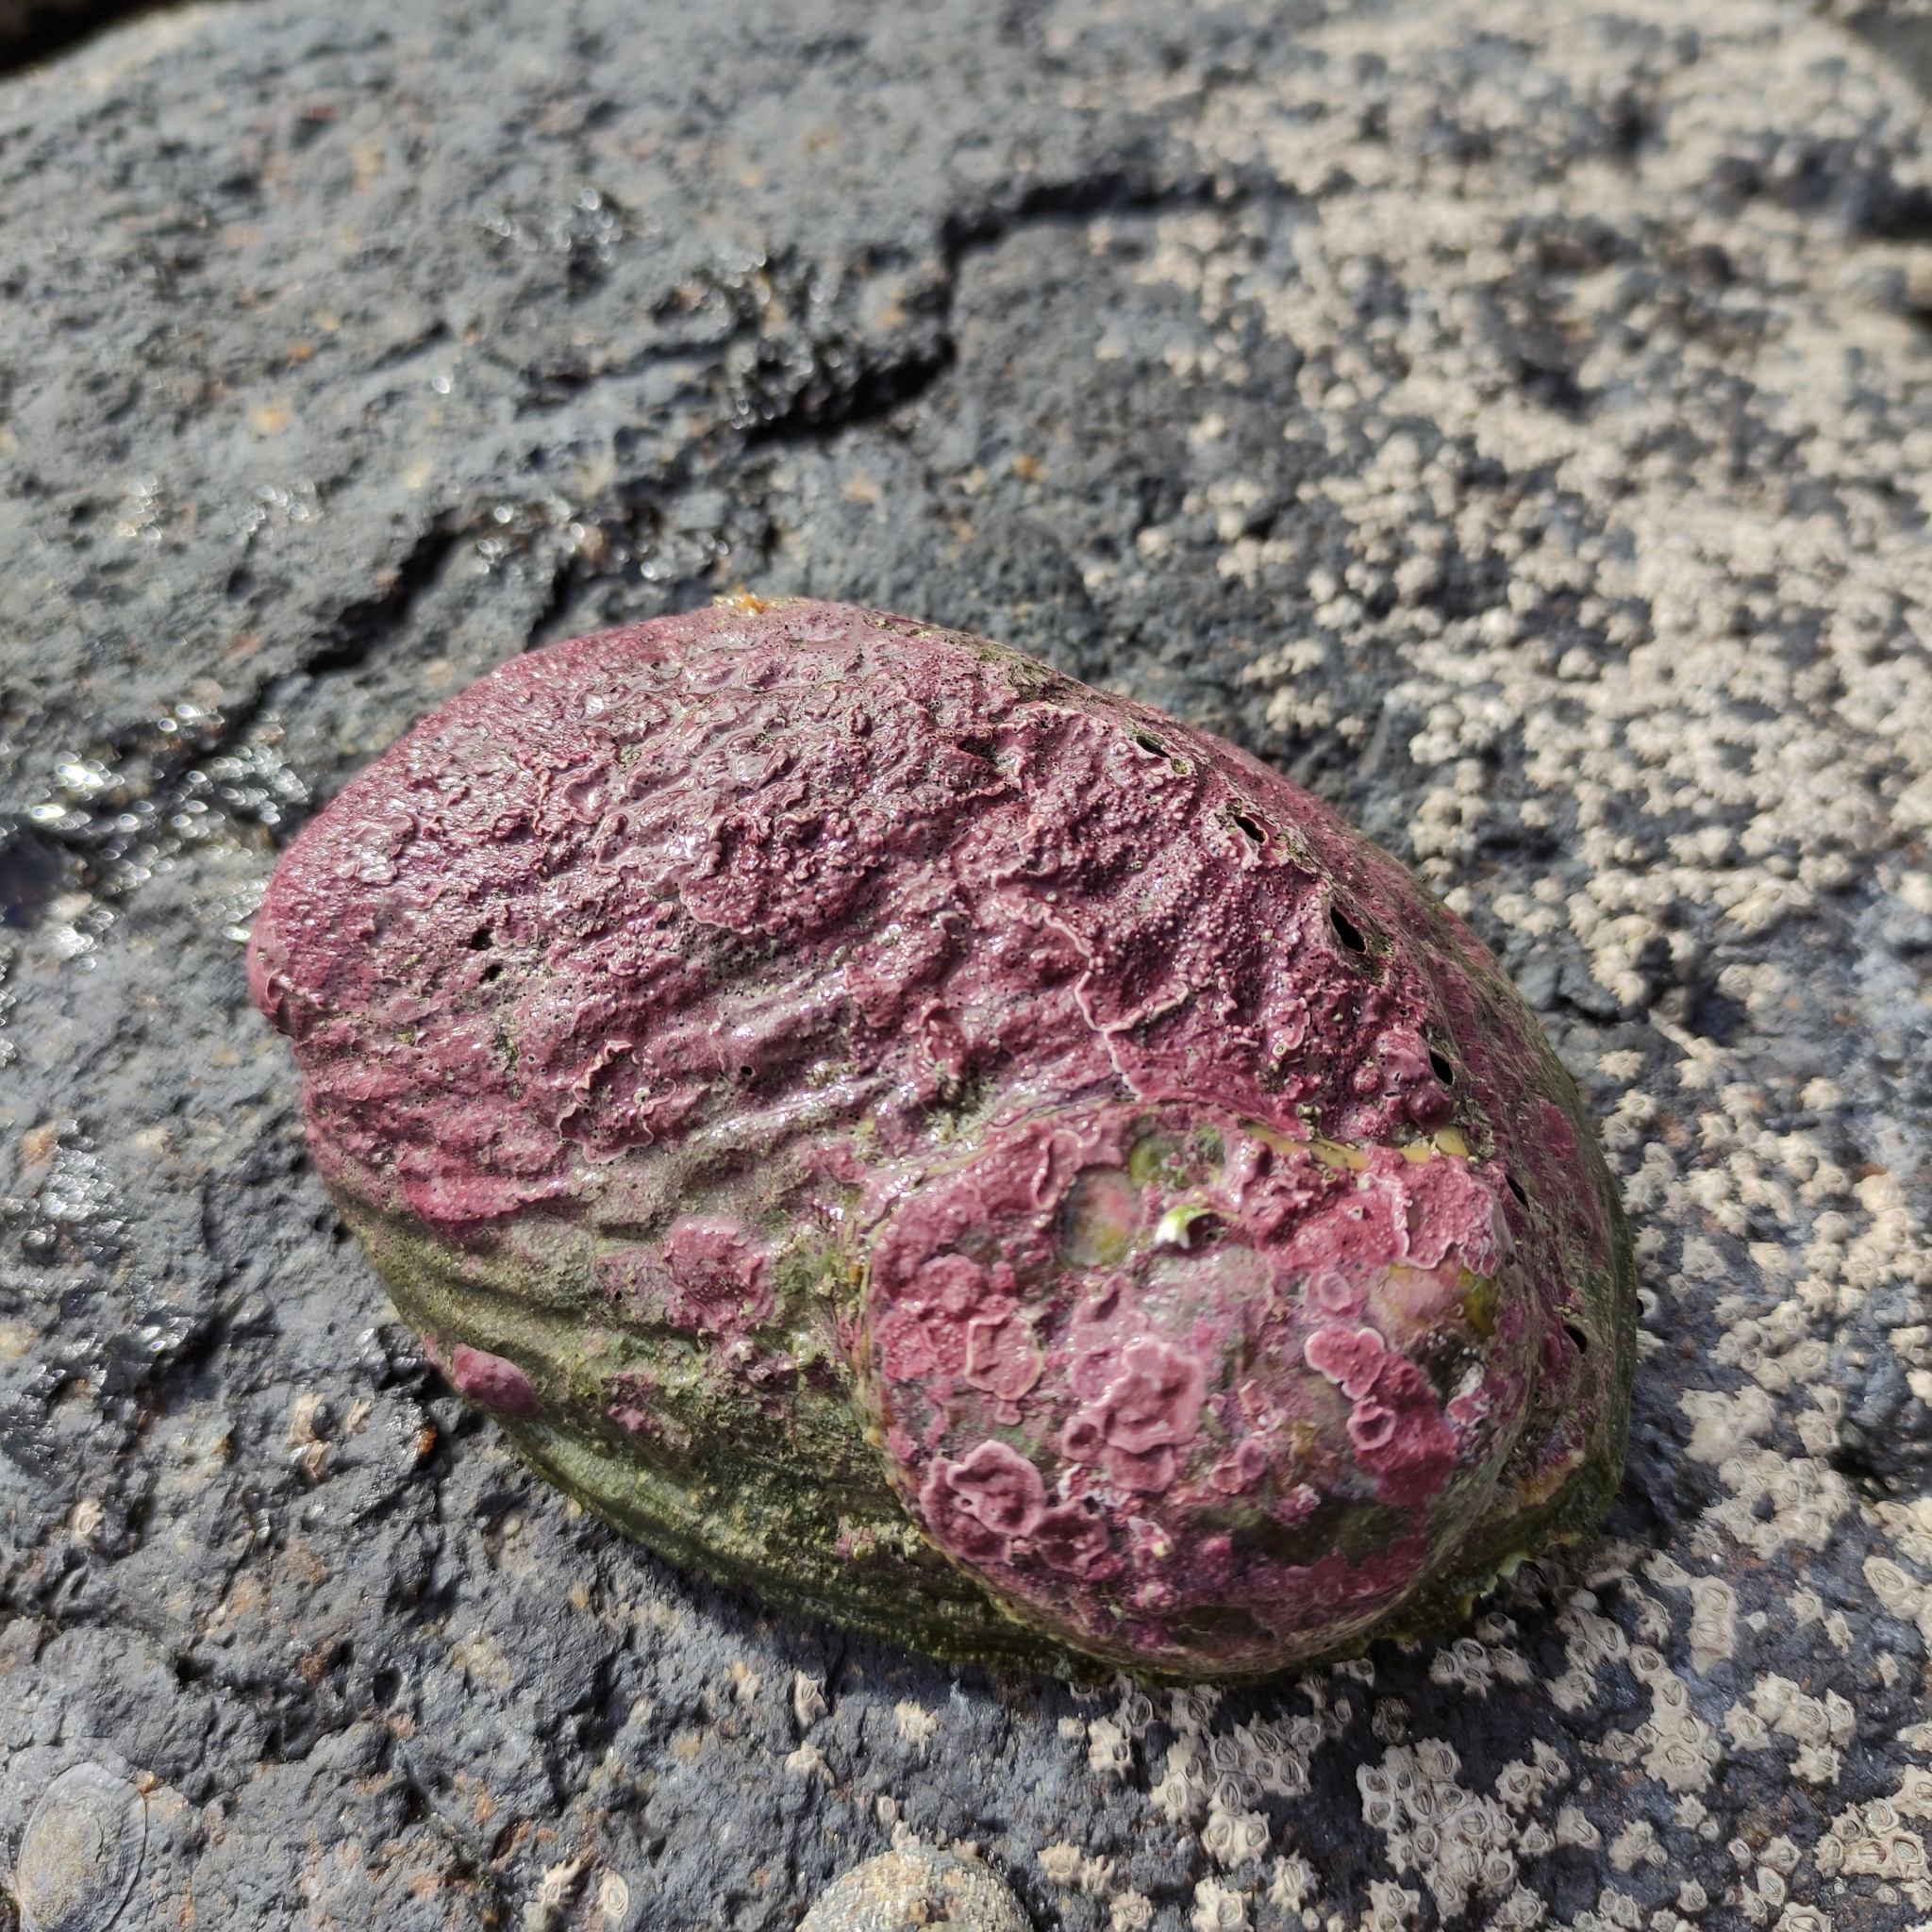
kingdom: Animalia
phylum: Mollusca
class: Gastropoda
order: Lepetellida
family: Haliotidae
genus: Haliotis
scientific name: Haliotis iris
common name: Abalone
